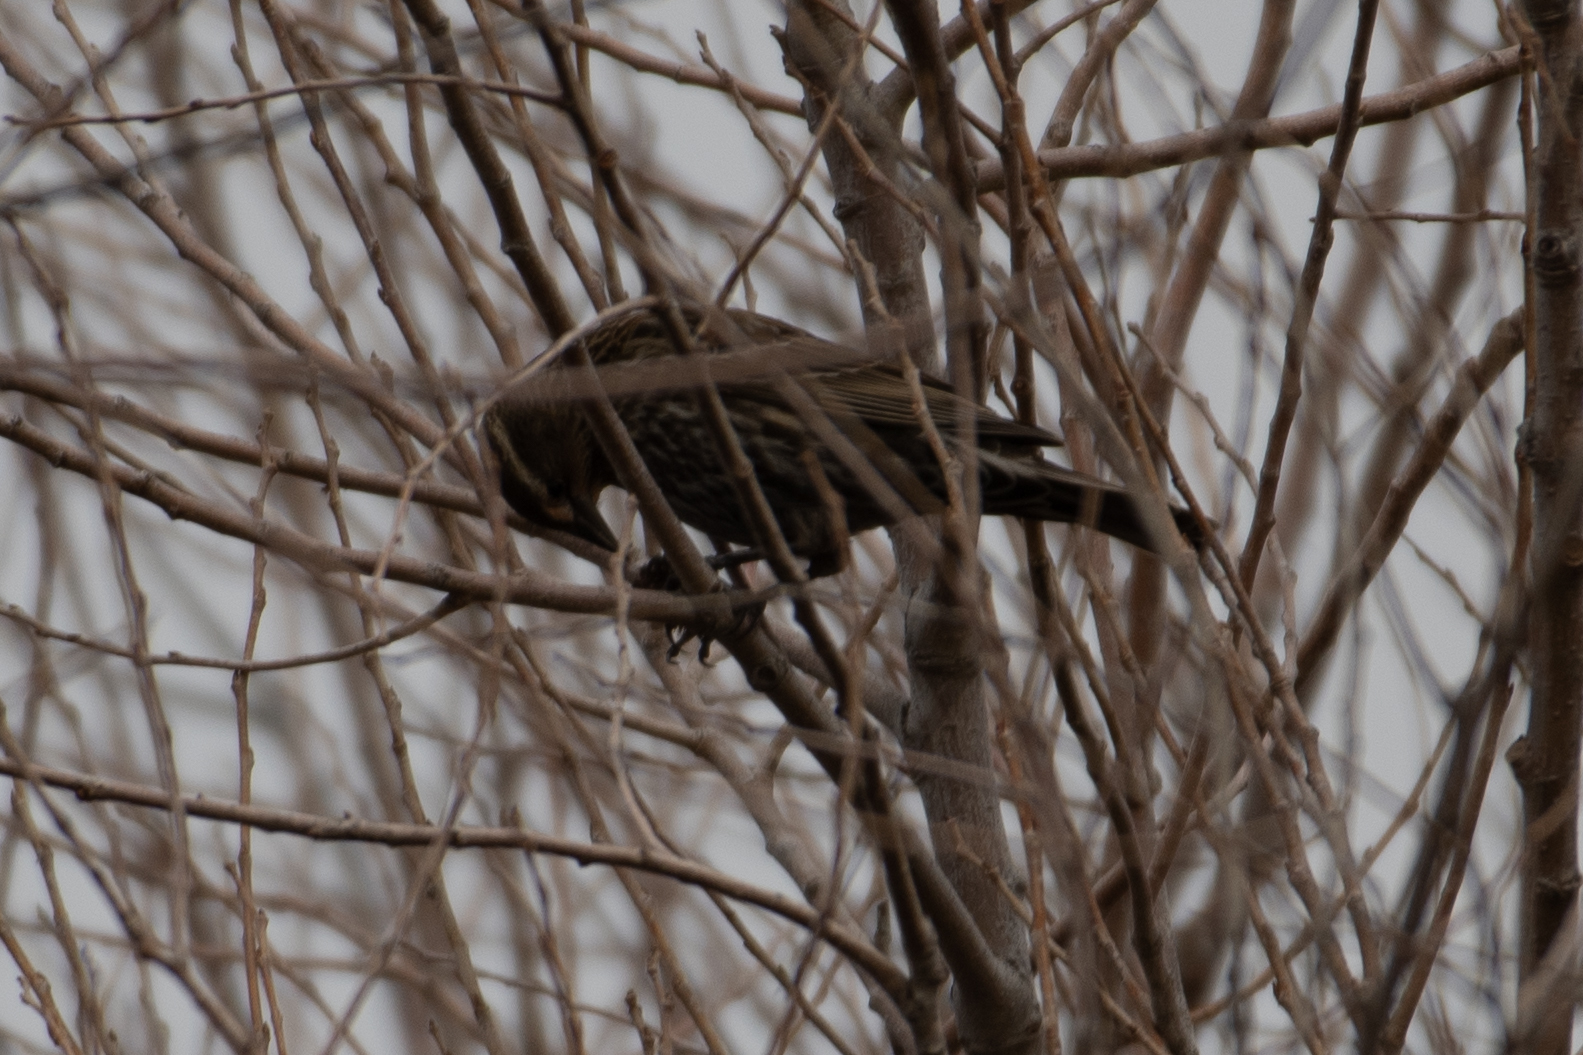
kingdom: Animalia
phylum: Chordata
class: Aves
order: Passeriformes
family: Icteridae
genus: Agelaius
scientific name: Agelaius phoeniceus
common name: Red-winged blackbird
